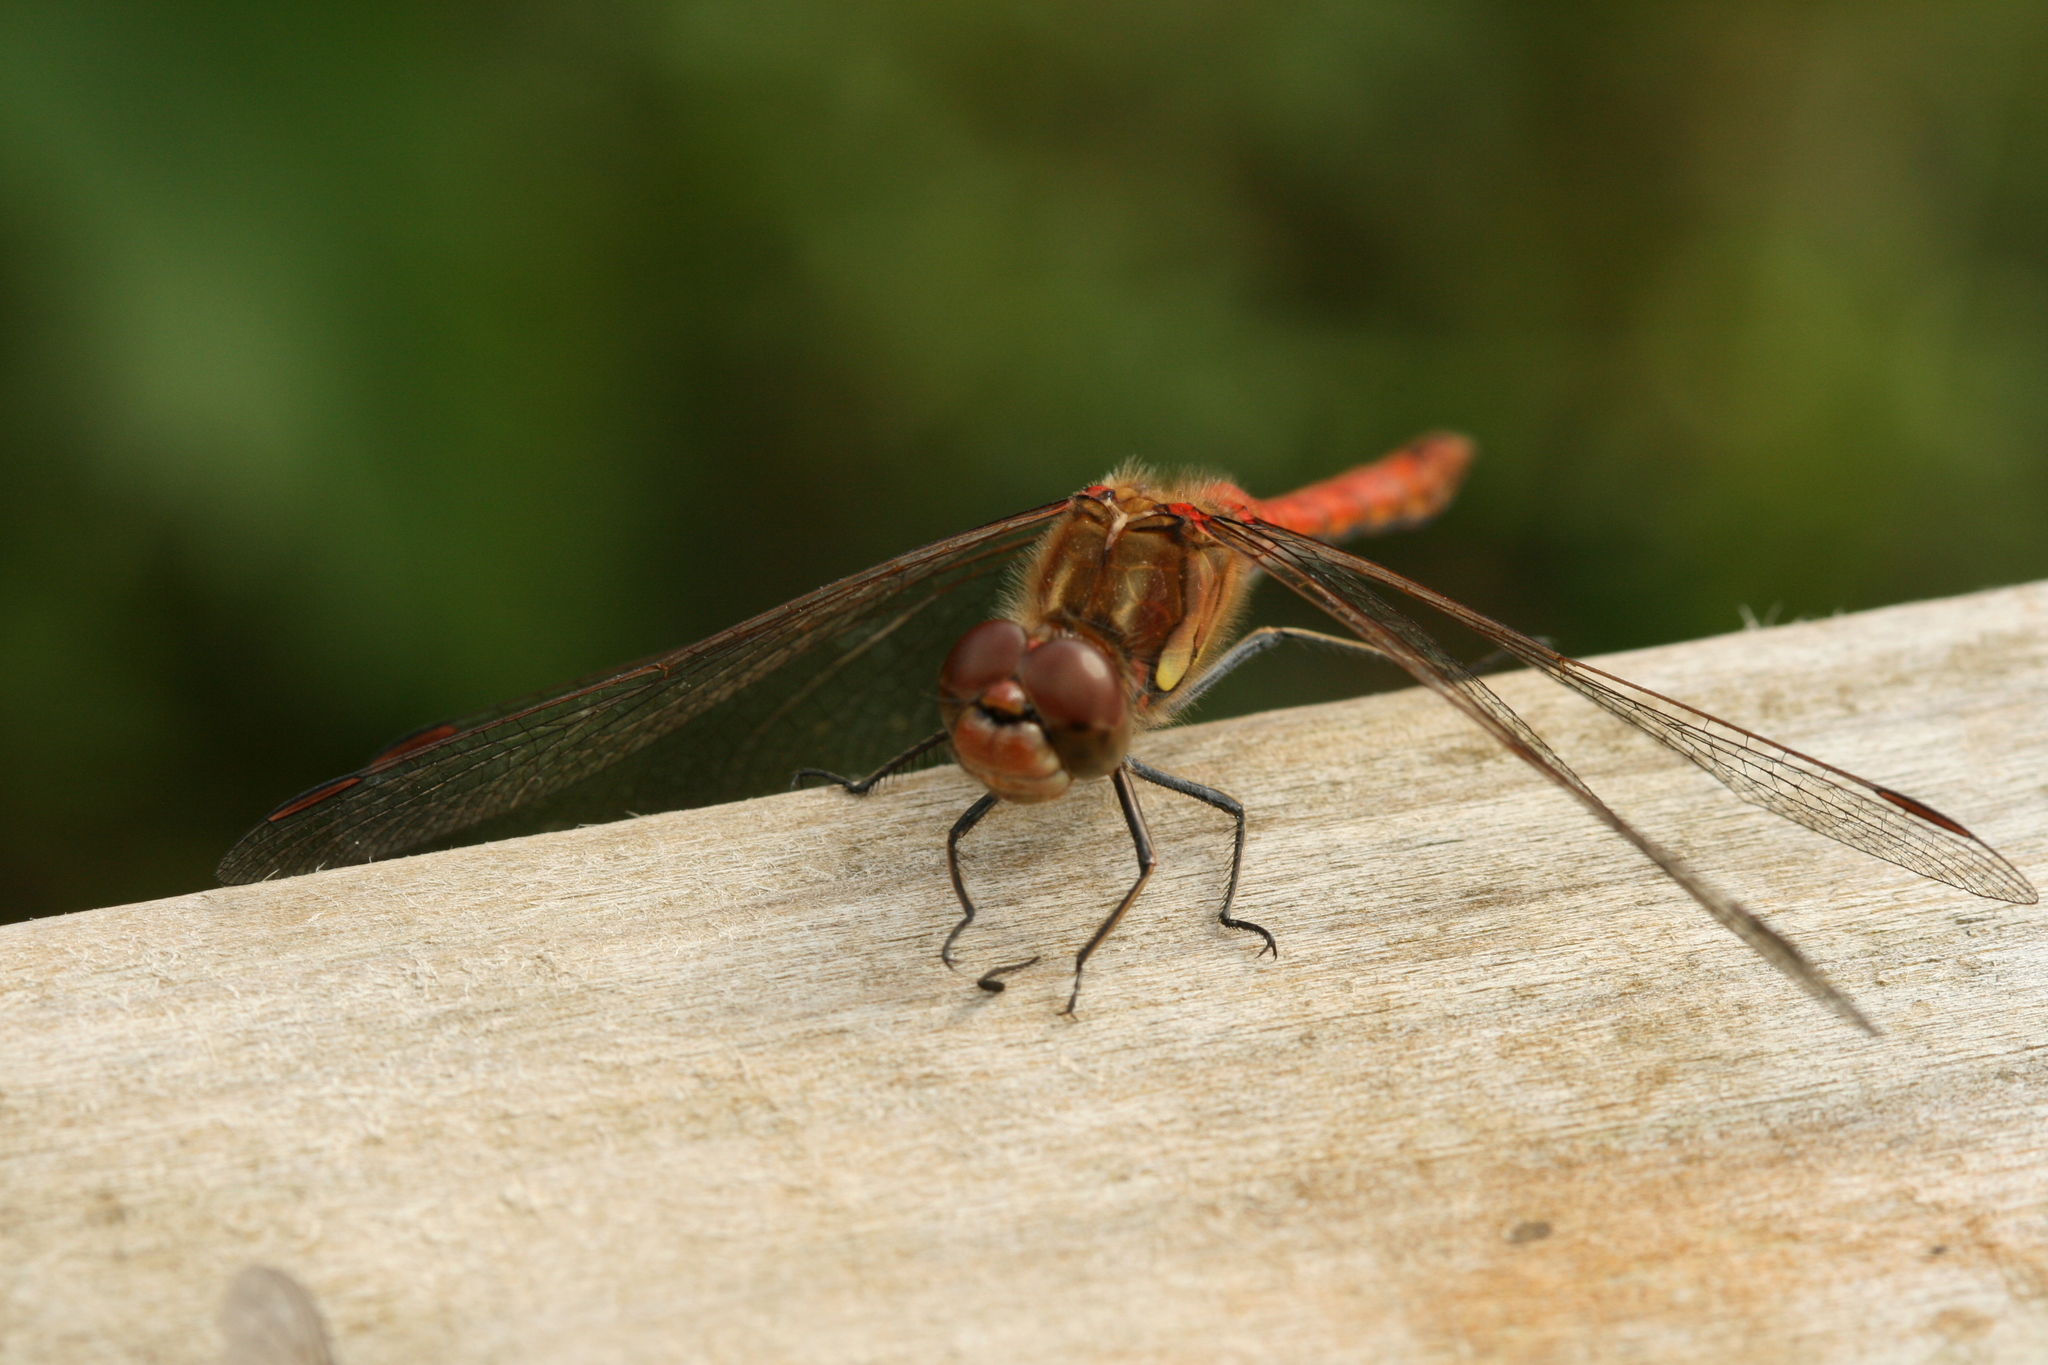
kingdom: Animalia
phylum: Arthropoda
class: Insecta
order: Odonata
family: Libellulidae
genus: Sympetrum
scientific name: Sympetrum striolatum
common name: Common darter
